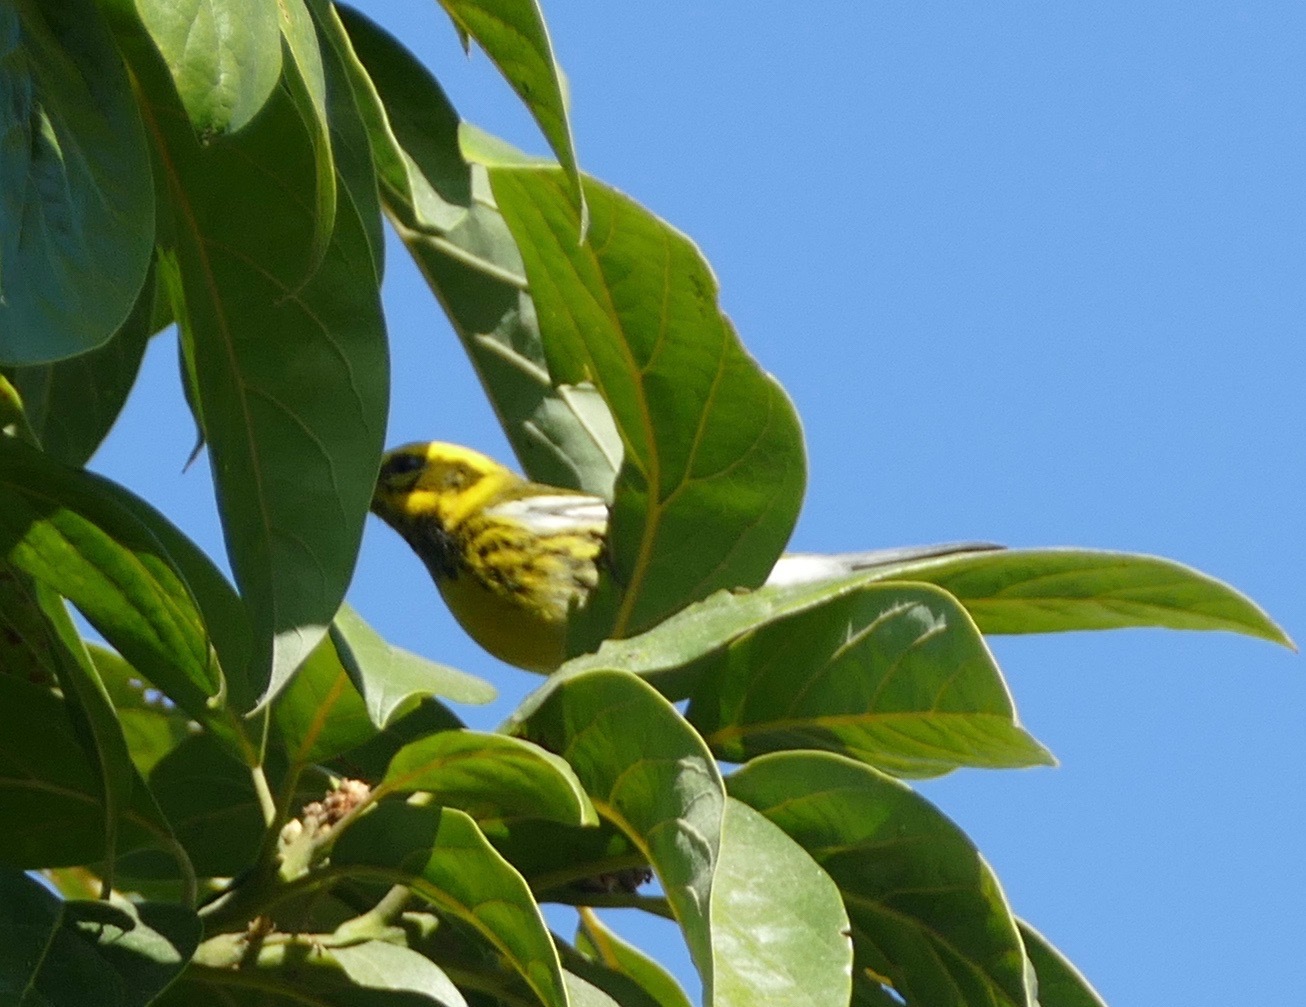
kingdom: Animalia
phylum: Chordata
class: Aves
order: Passeriformes
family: Parulidae
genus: Setophaga
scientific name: Setophaga townsendi
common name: Townsend's warbler
